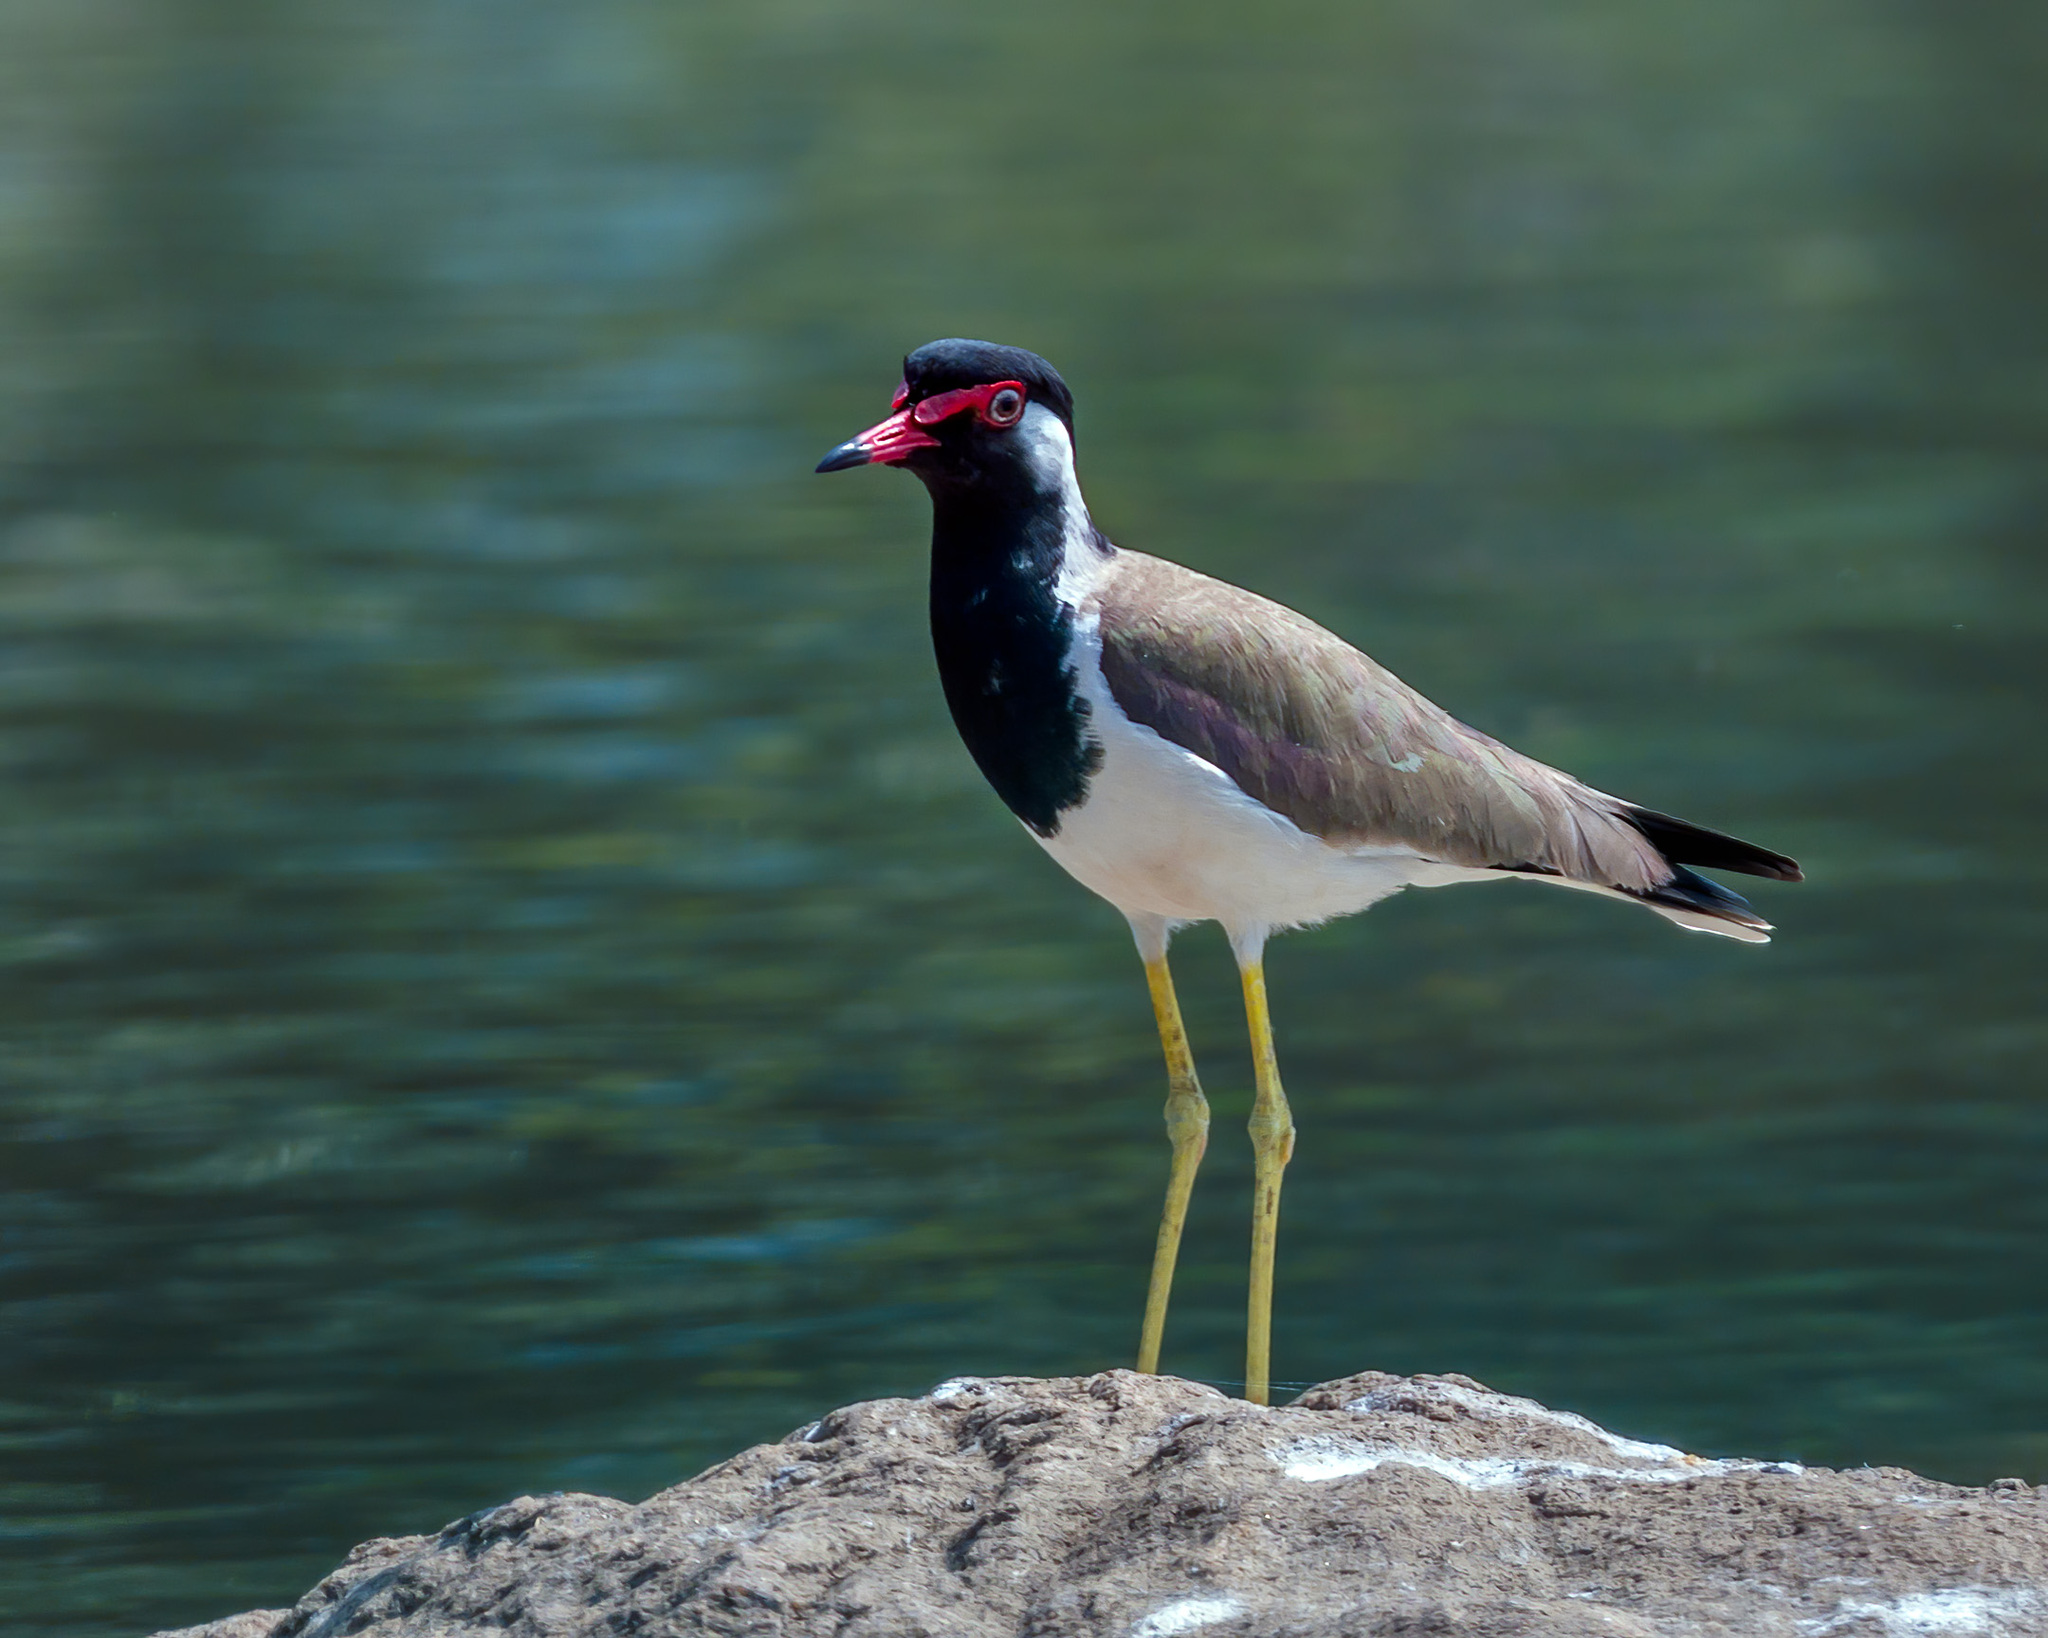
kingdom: Animalia
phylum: Chordata
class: Aves
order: Charadriiformes
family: Charadriidae
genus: Vanellus
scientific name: Vanellus indicus
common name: Red-wattled lapwing
